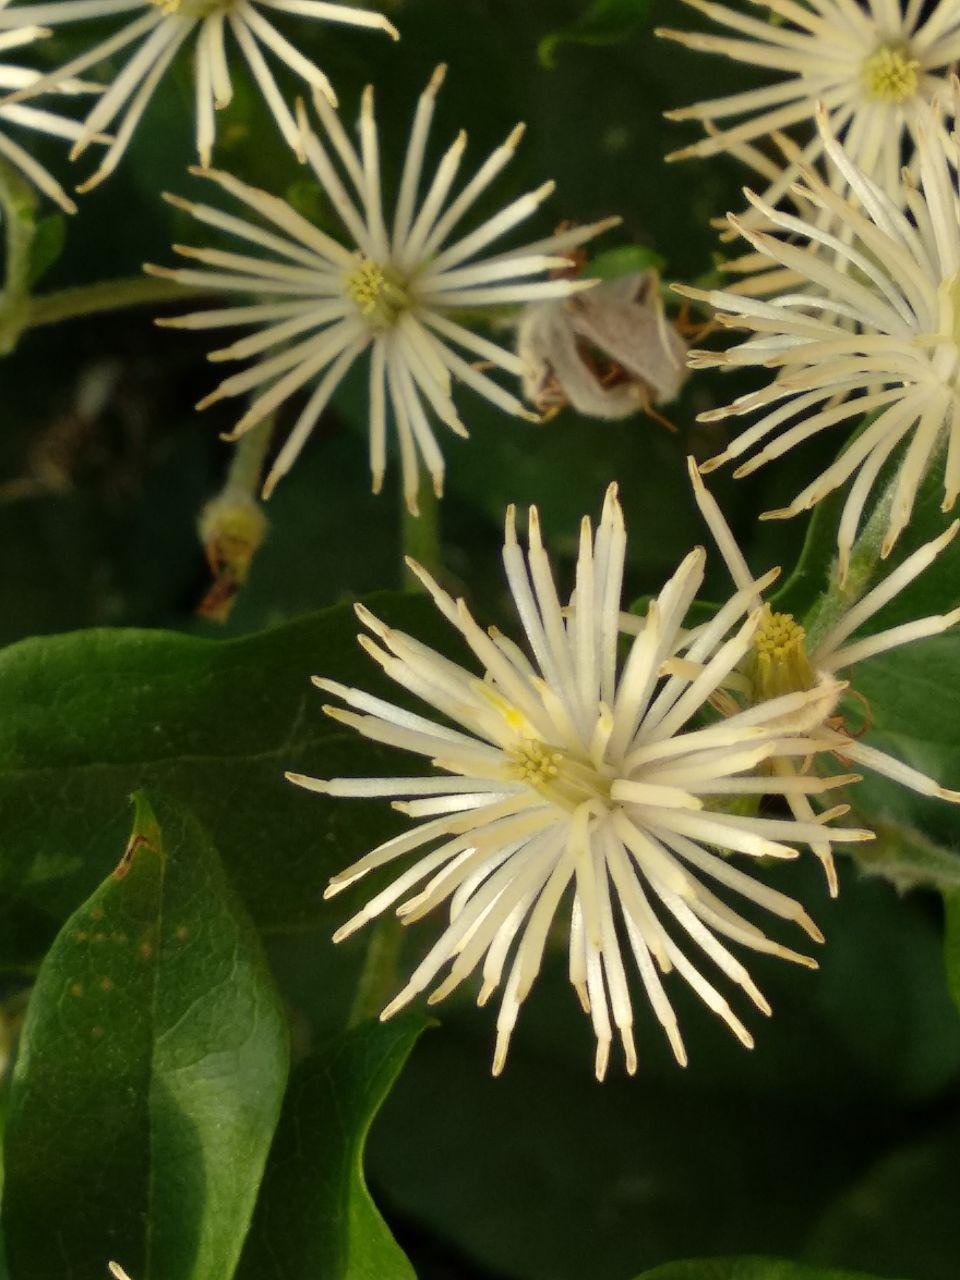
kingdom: Plantae
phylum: Tracheophyta
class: Magnoliopsida
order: Ranunculales
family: Ranunculaceae
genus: Clematis
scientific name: Clematis vitalba
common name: Evergreen clematis
